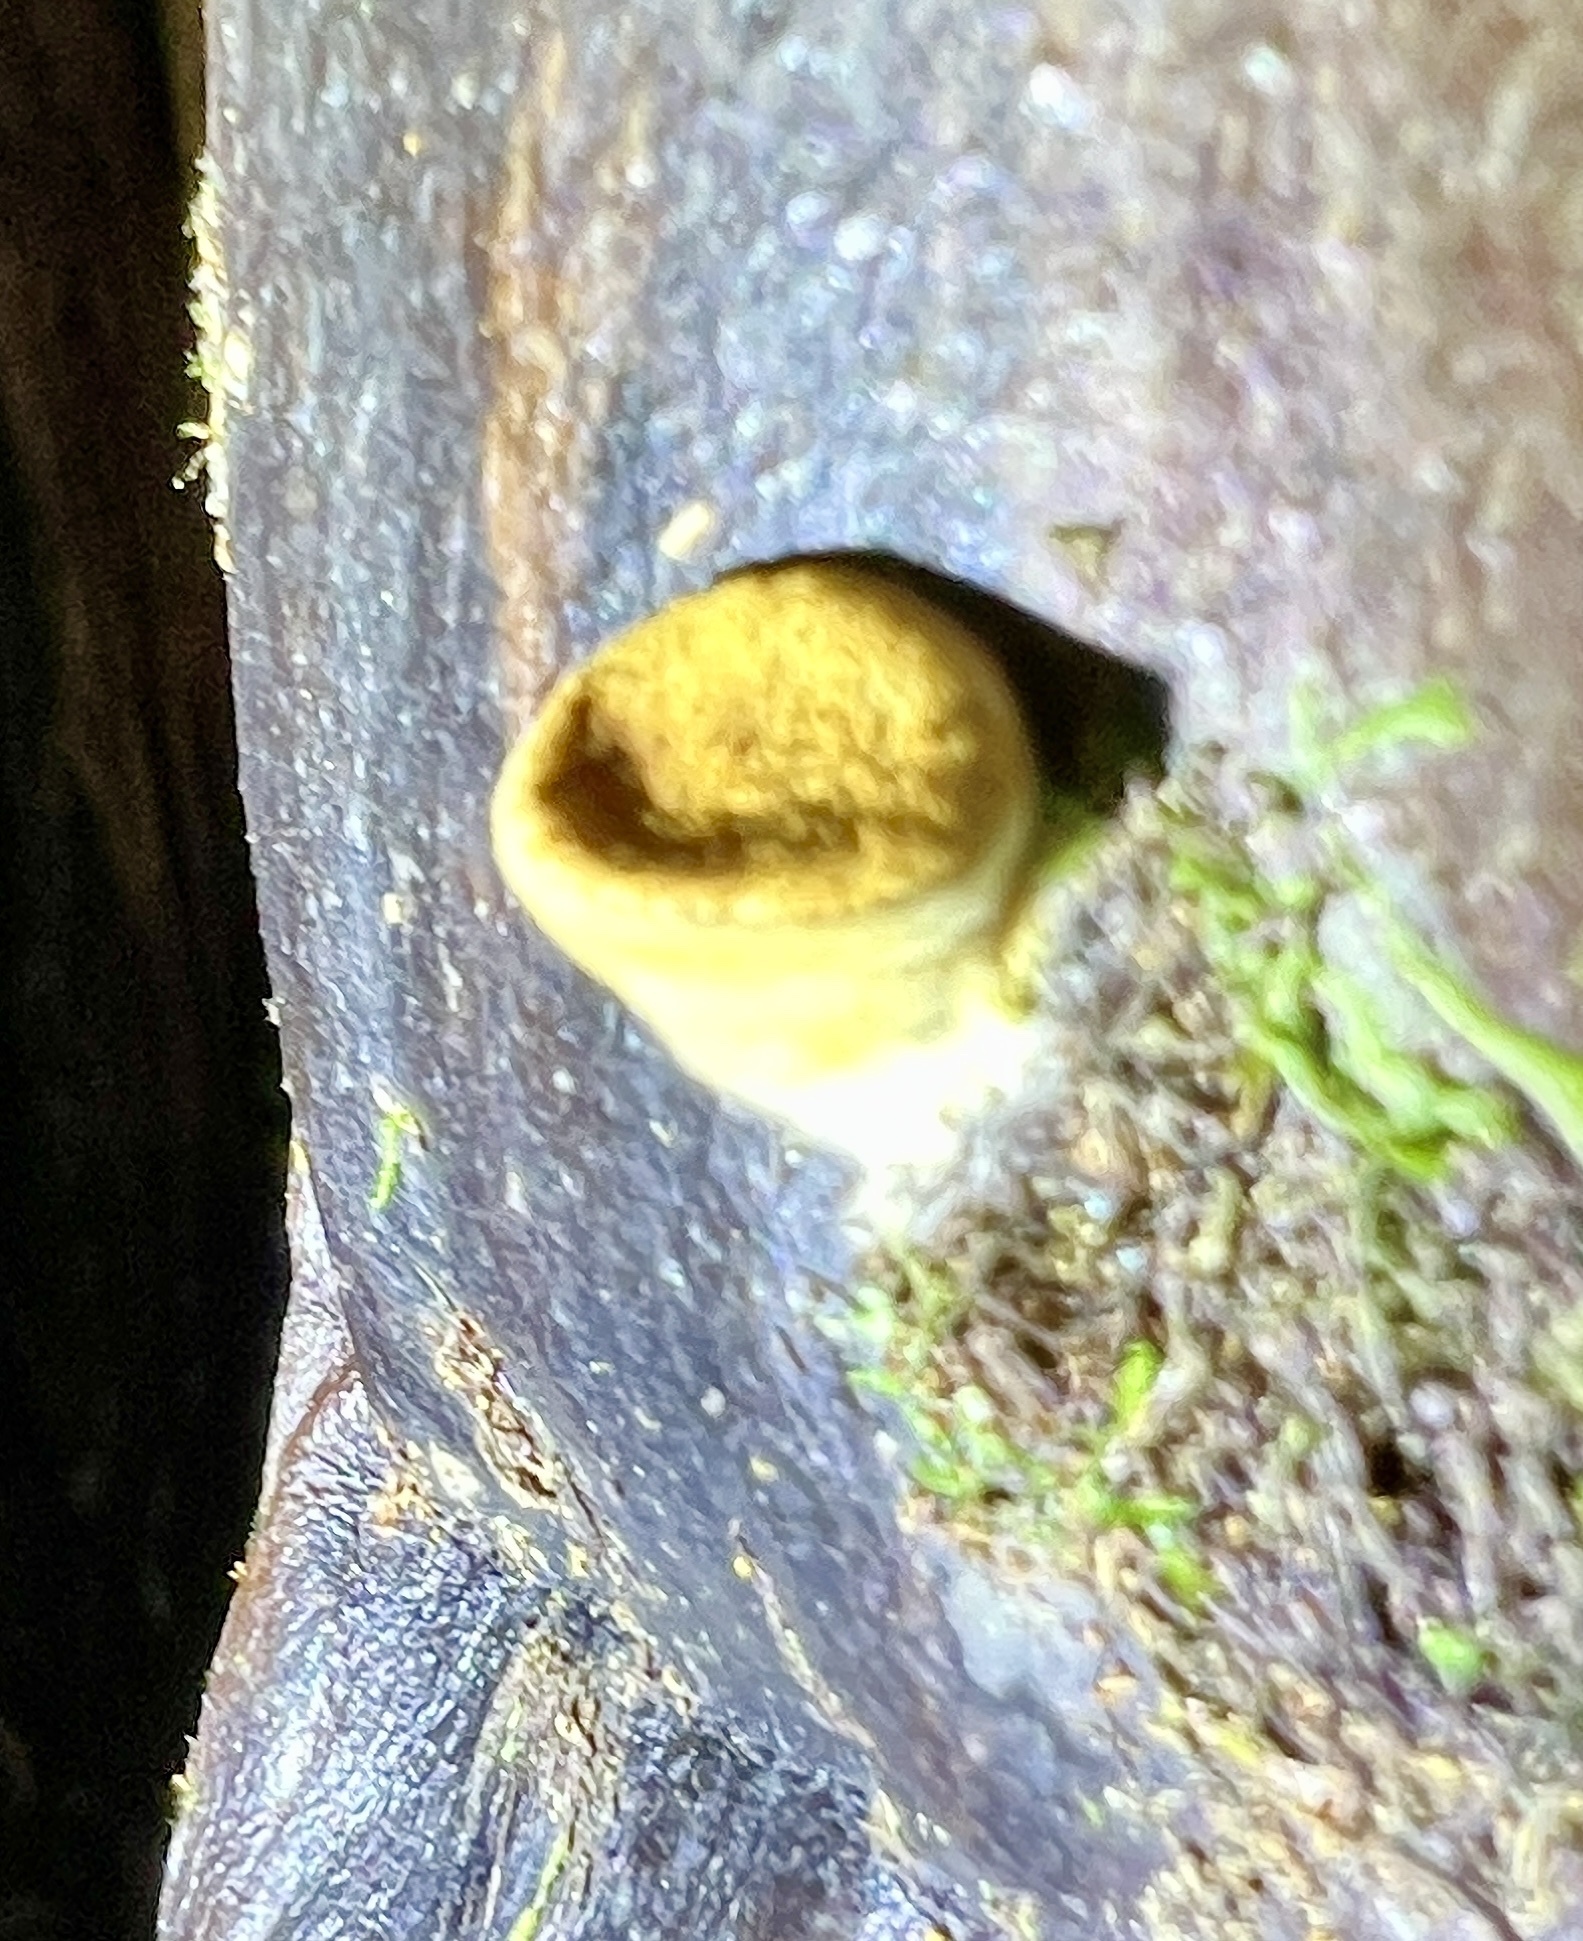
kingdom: Fungi
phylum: Basidiomycota
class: Agaricomycetes
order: Agaricales
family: Nidulariaceae
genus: Crucibulum
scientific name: Crucibulum simile
